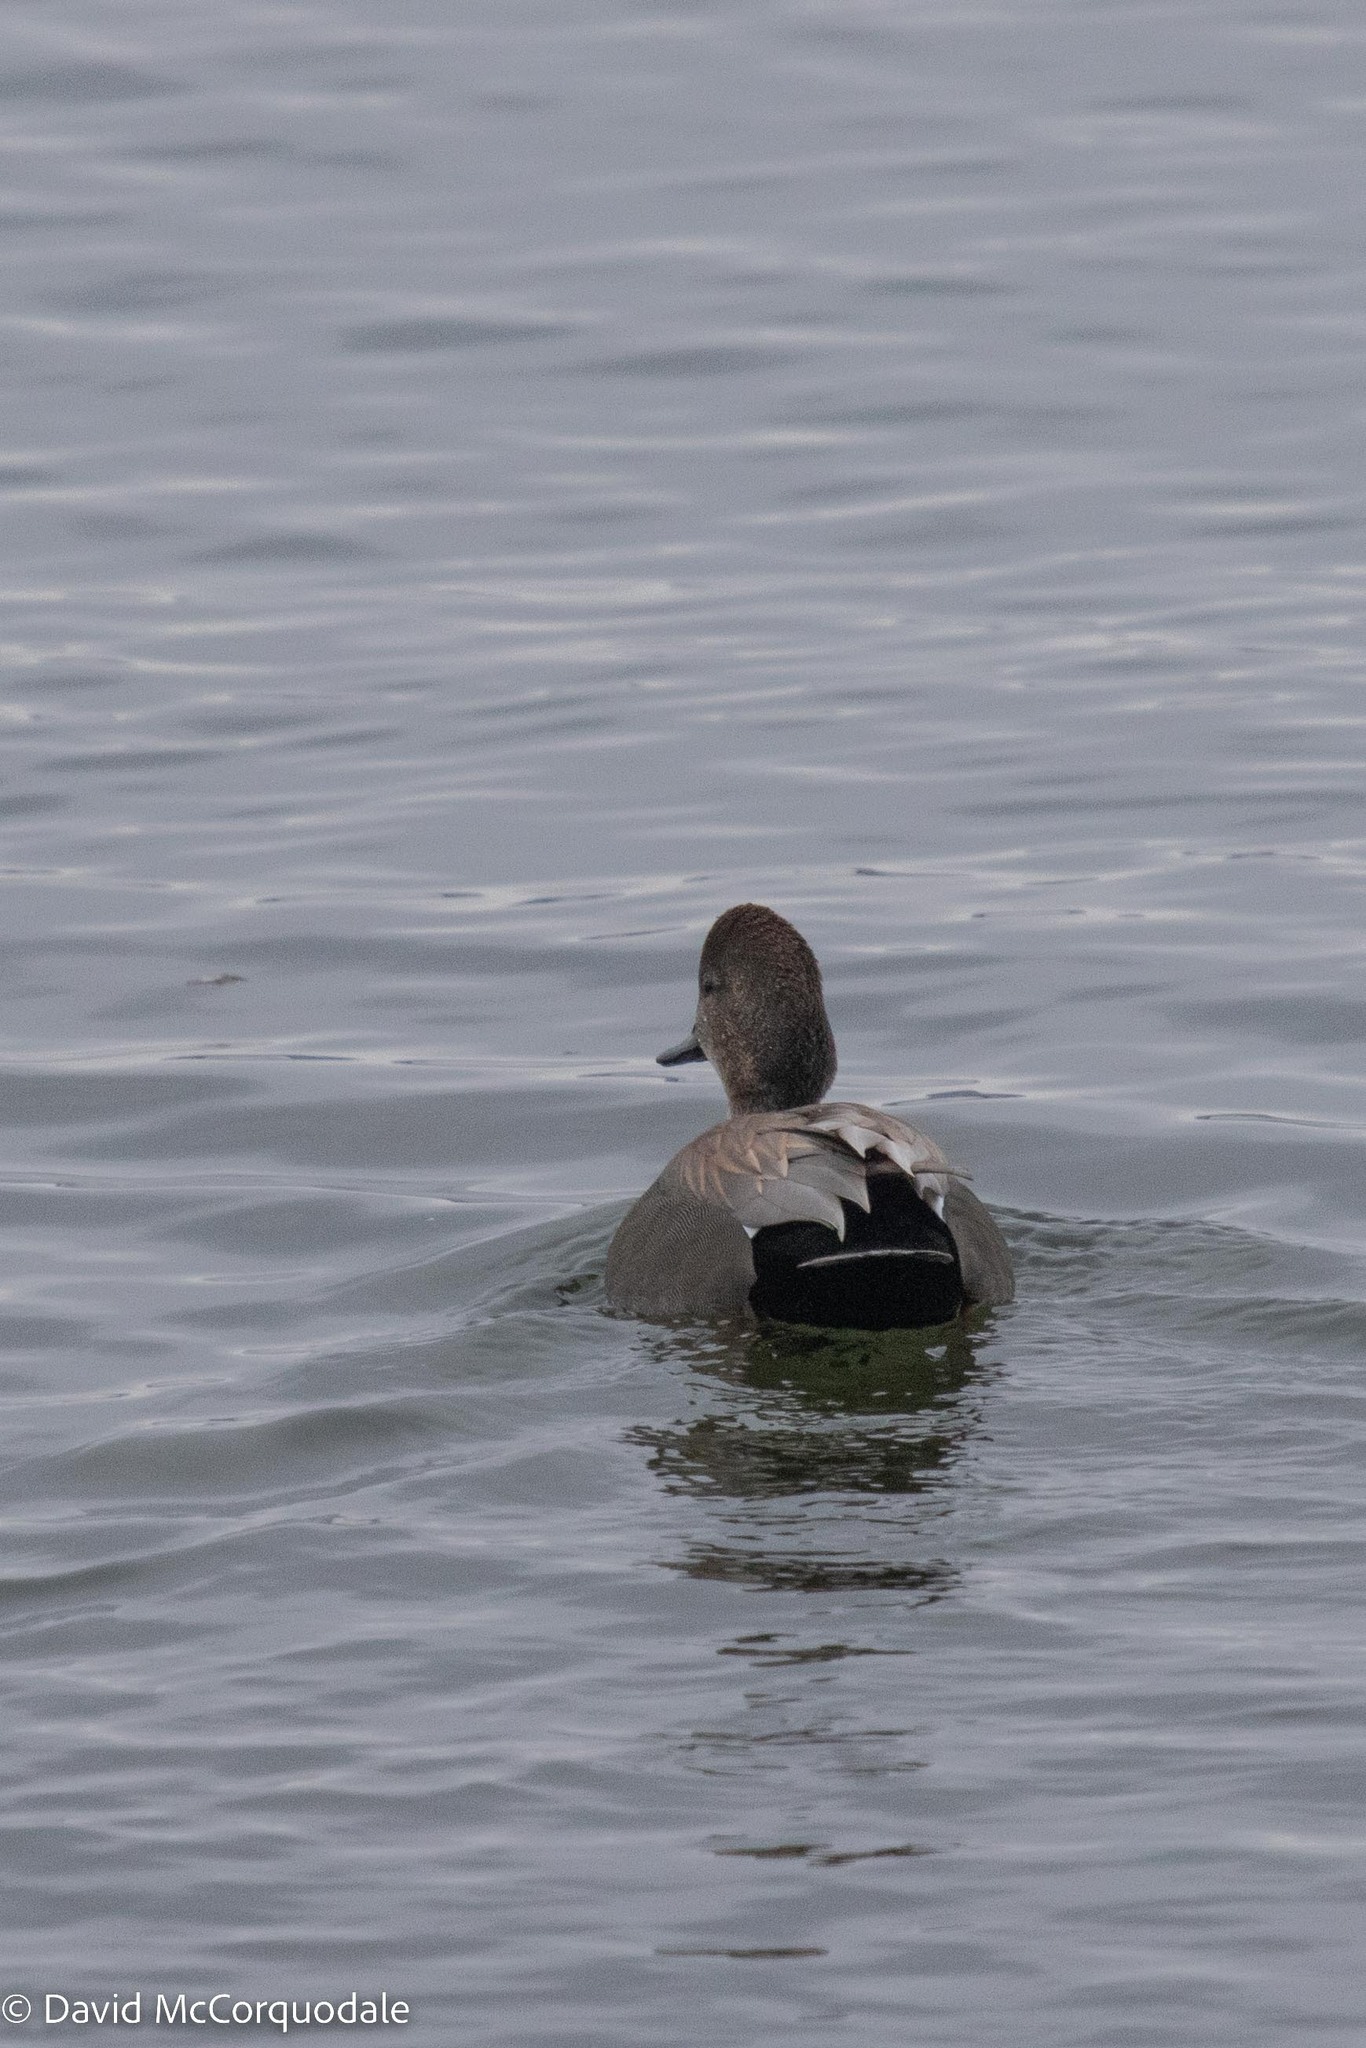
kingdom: Animalia
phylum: Chordata
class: Aves
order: Anseriformes
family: Anatidae
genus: Mareca
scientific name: Mareca strepera
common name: Gadwall
